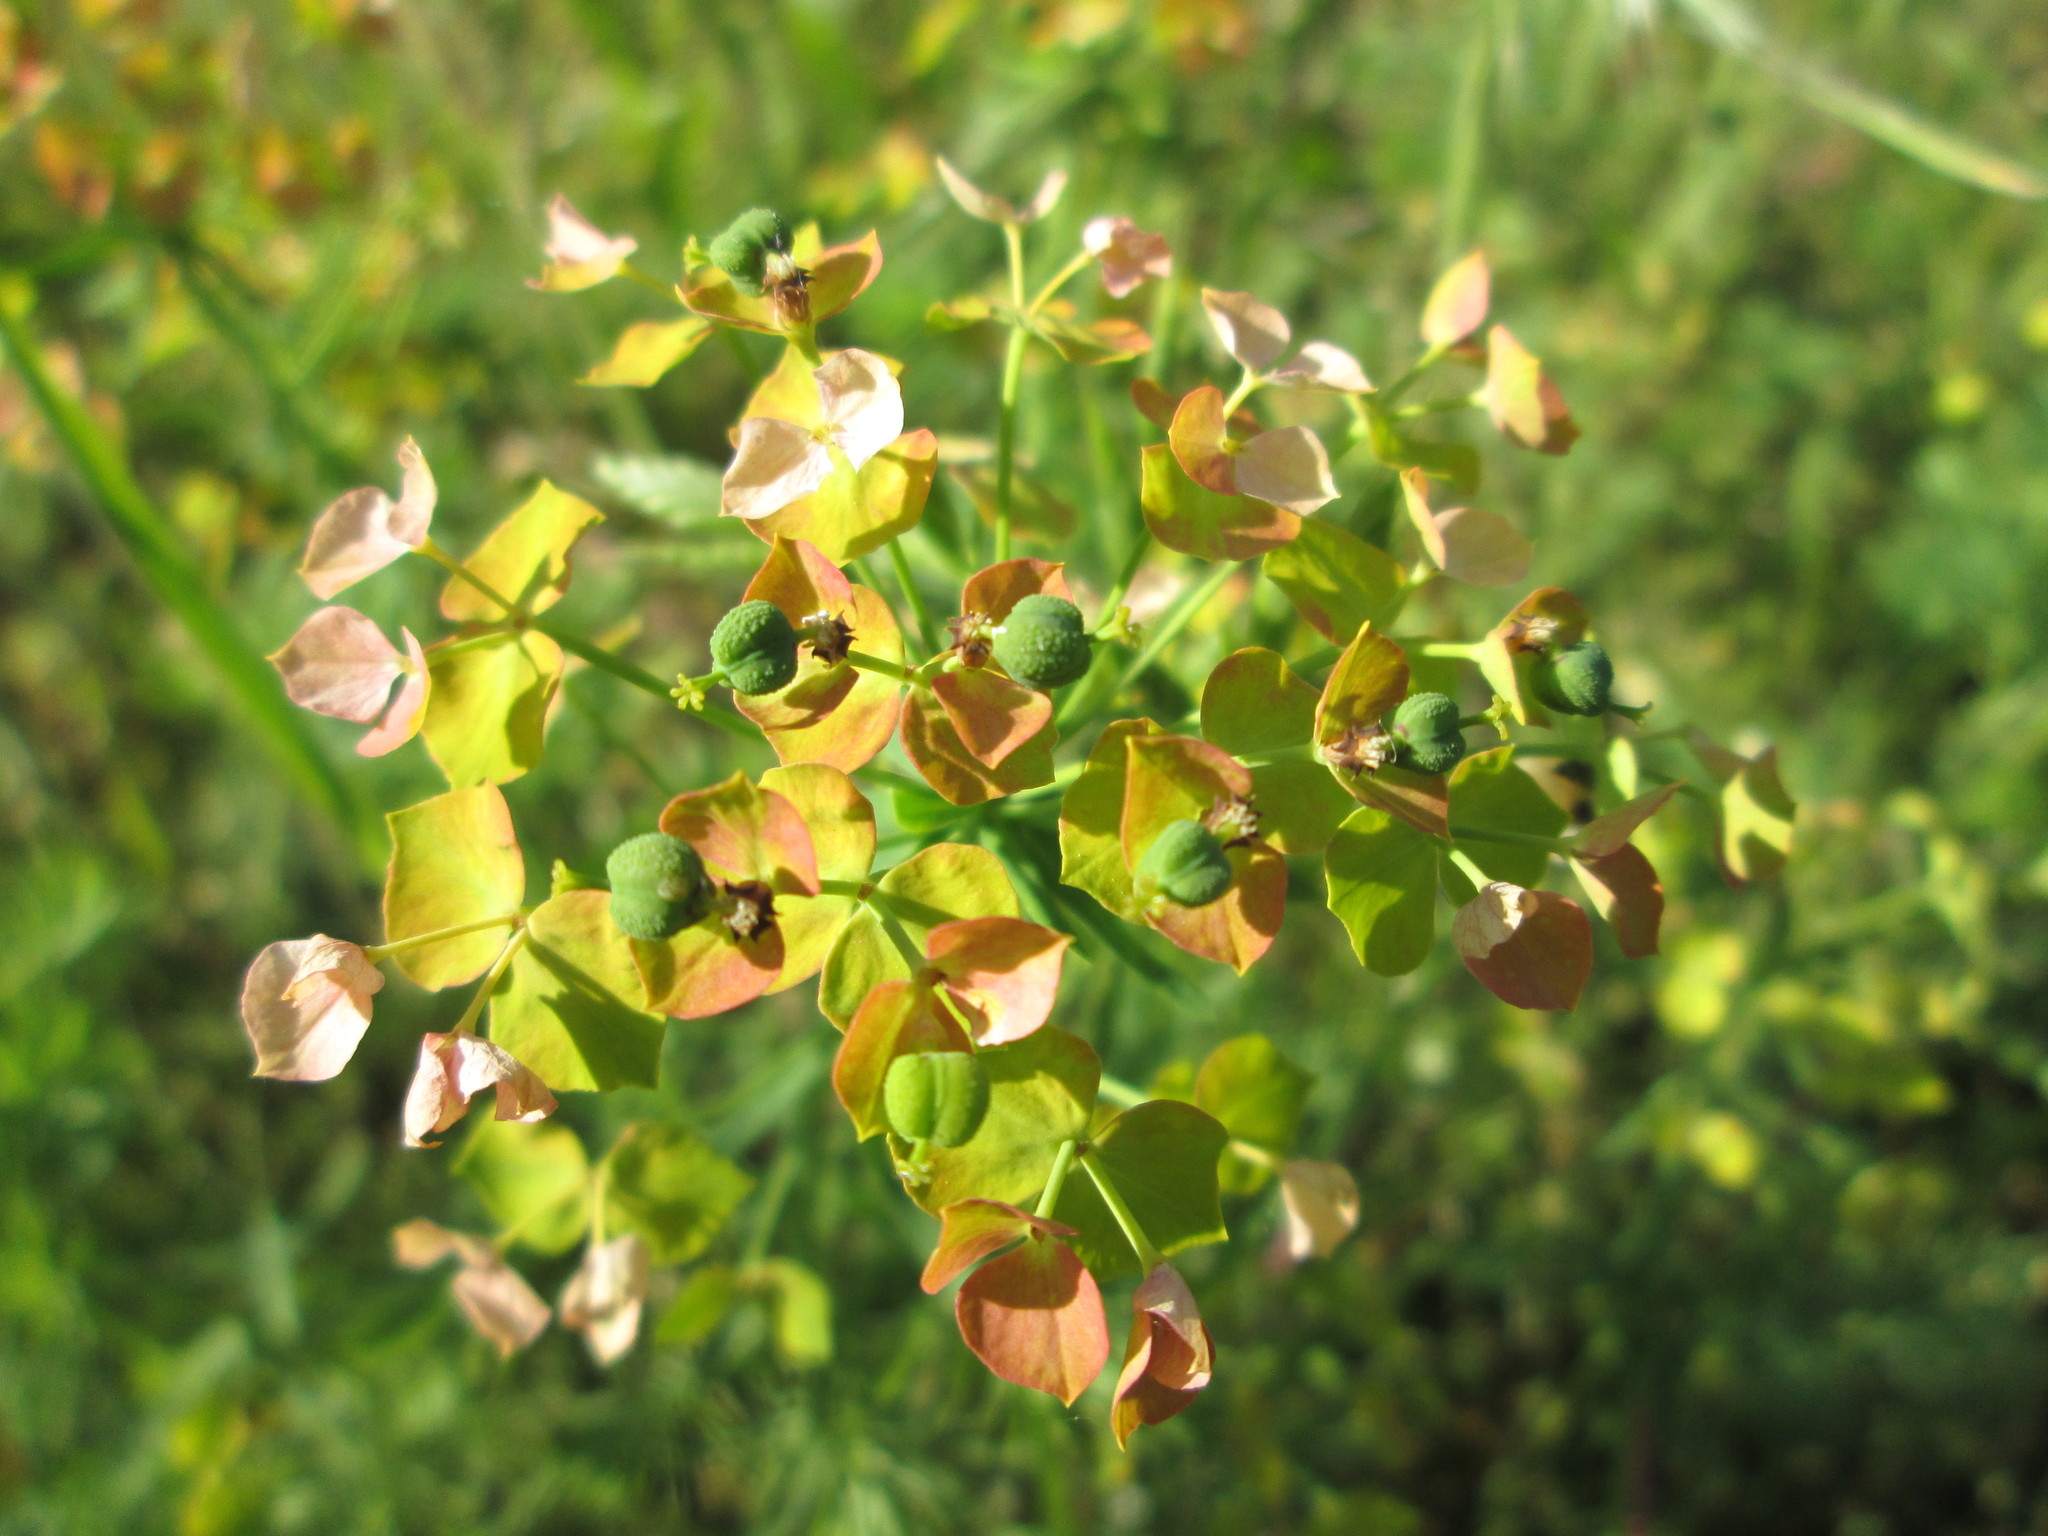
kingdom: Plantae
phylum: Tracheophyta
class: Magnoliopsida
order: Malpighiales
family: Euphorbiaceae
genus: Euphorbia
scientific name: Euphorbia cyparissias
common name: Cypress spurge
